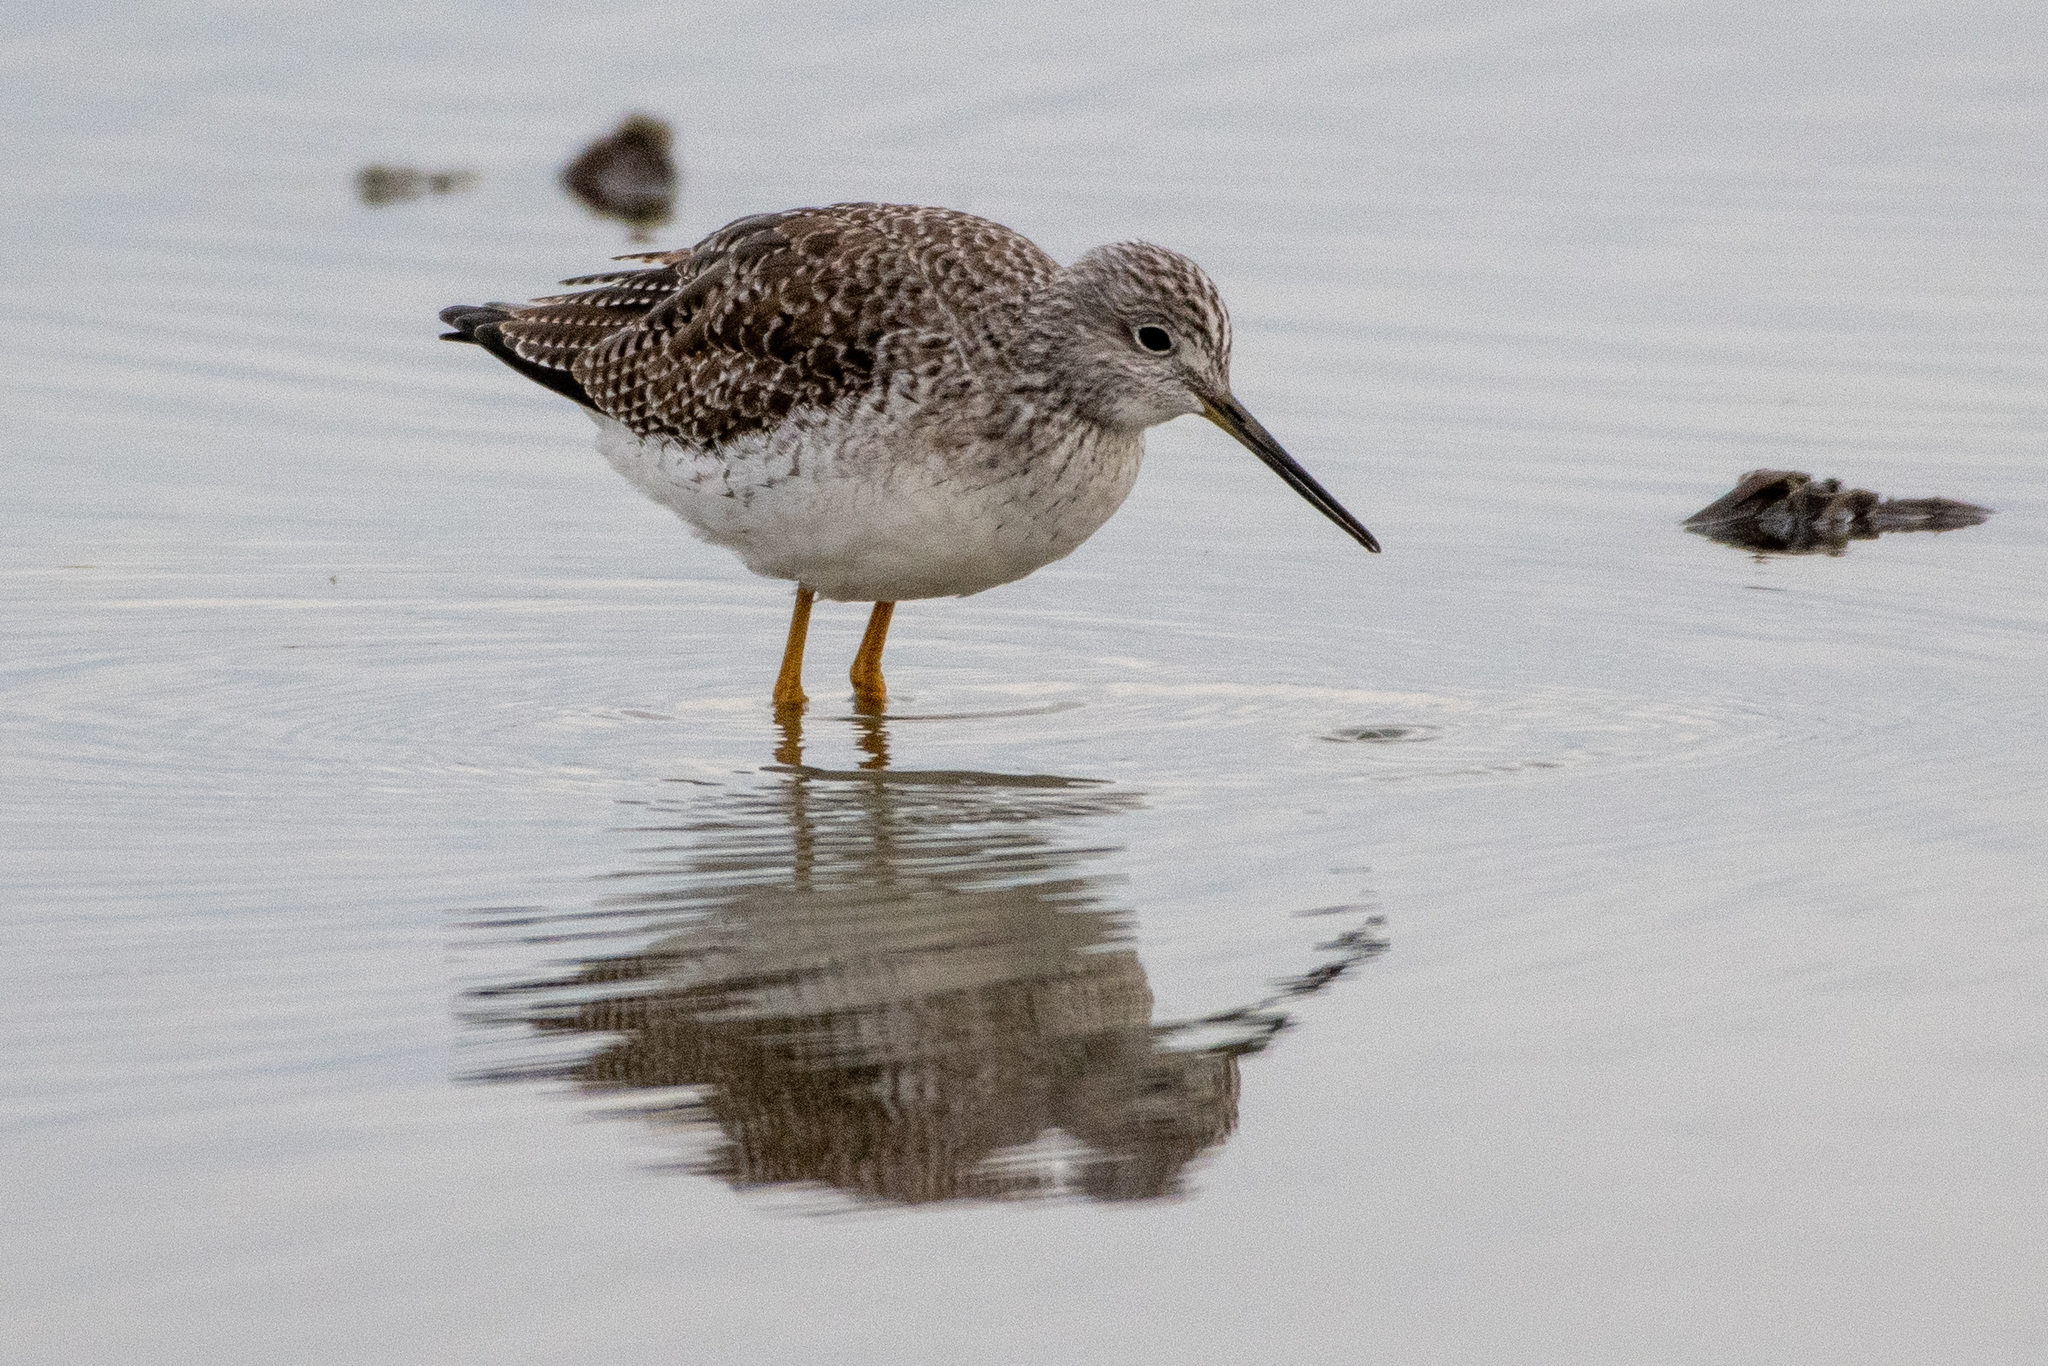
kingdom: Animalia
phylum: Chordata
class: Aves
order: Charadriiformes
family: Scolopacidae
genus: Tringa
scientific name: Tringa melanoleuca
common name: Greater yellowlegs
